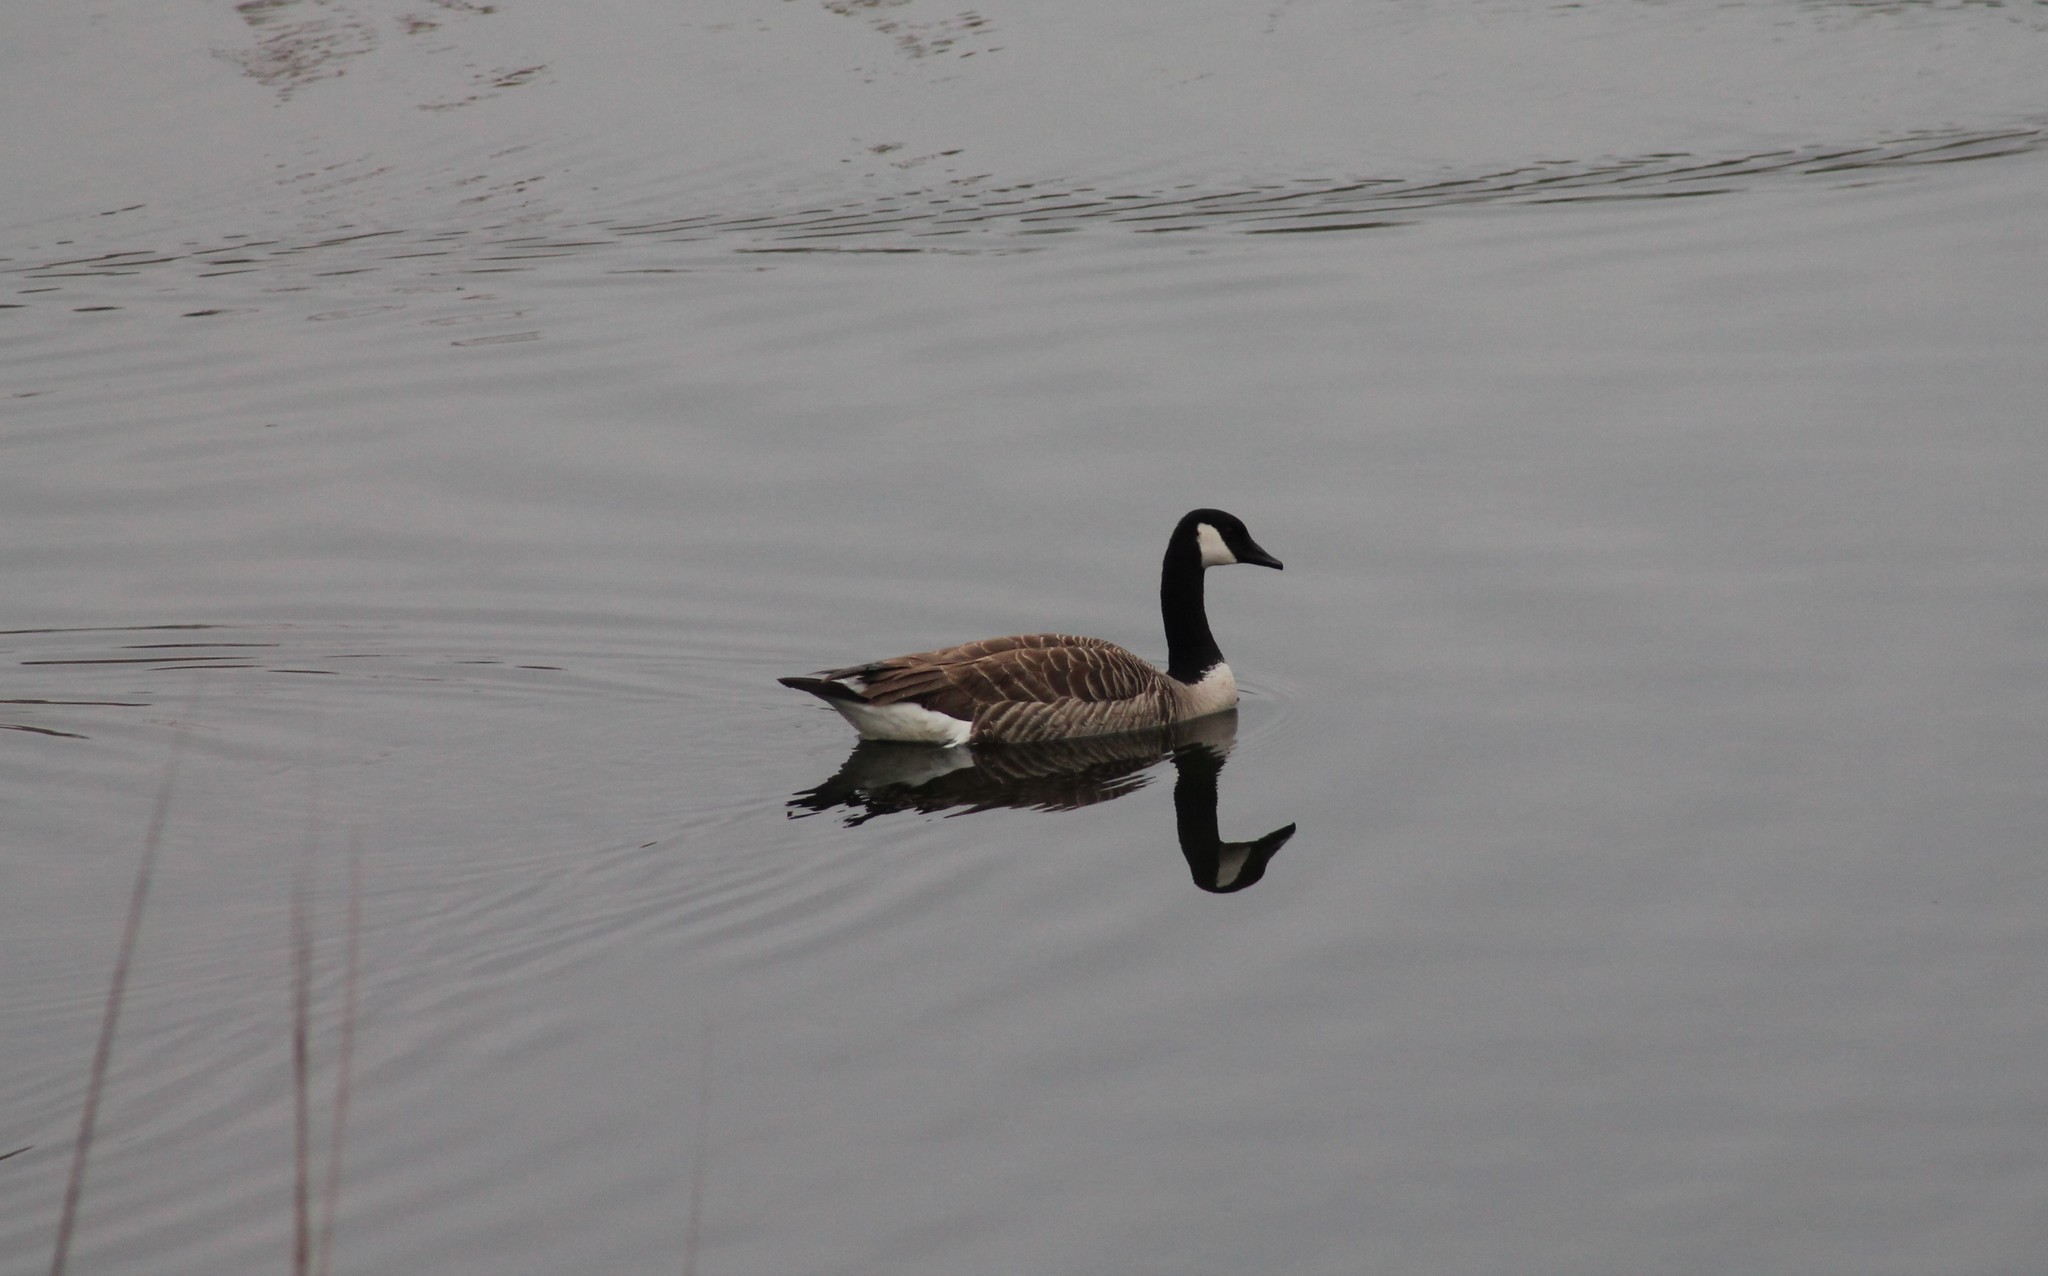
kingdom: Animalia
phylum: Chordata
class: Aves
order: Anseriformes
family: Anatidae
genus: Branta
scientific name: Branta canadensis
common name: Canada goose
